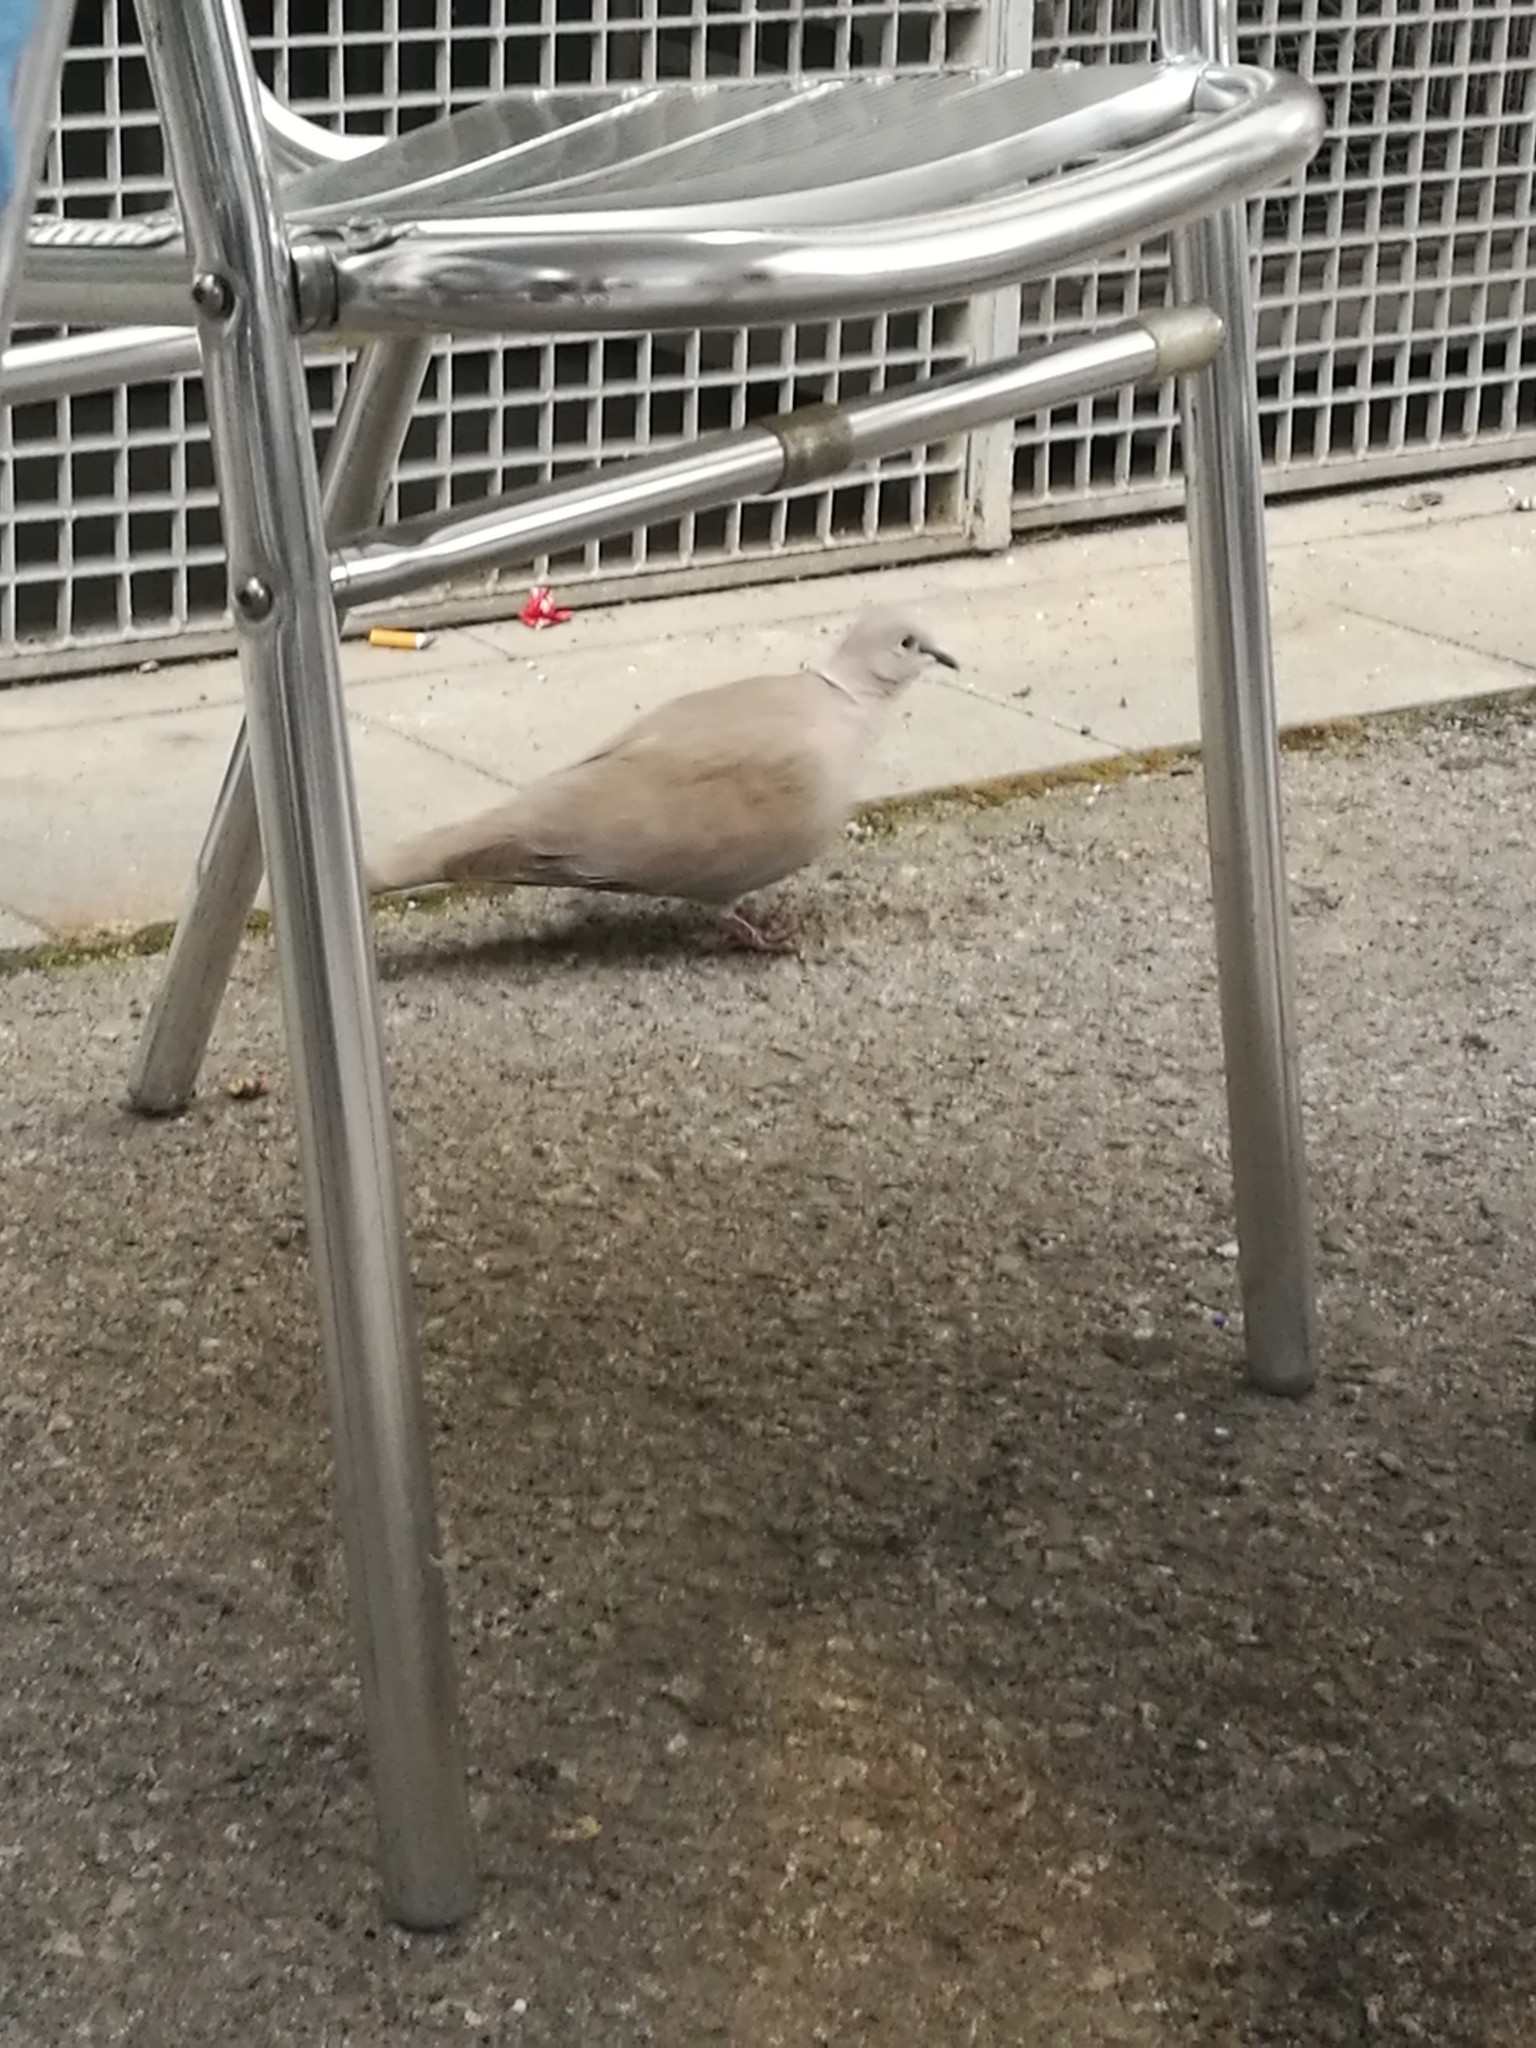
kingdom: Animalia
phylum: Chordata
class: Aves
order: Columbiformes
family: Columbidae
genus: Streptopelia
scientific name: Streptopelia decaocto
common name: Eurasian collared dove
